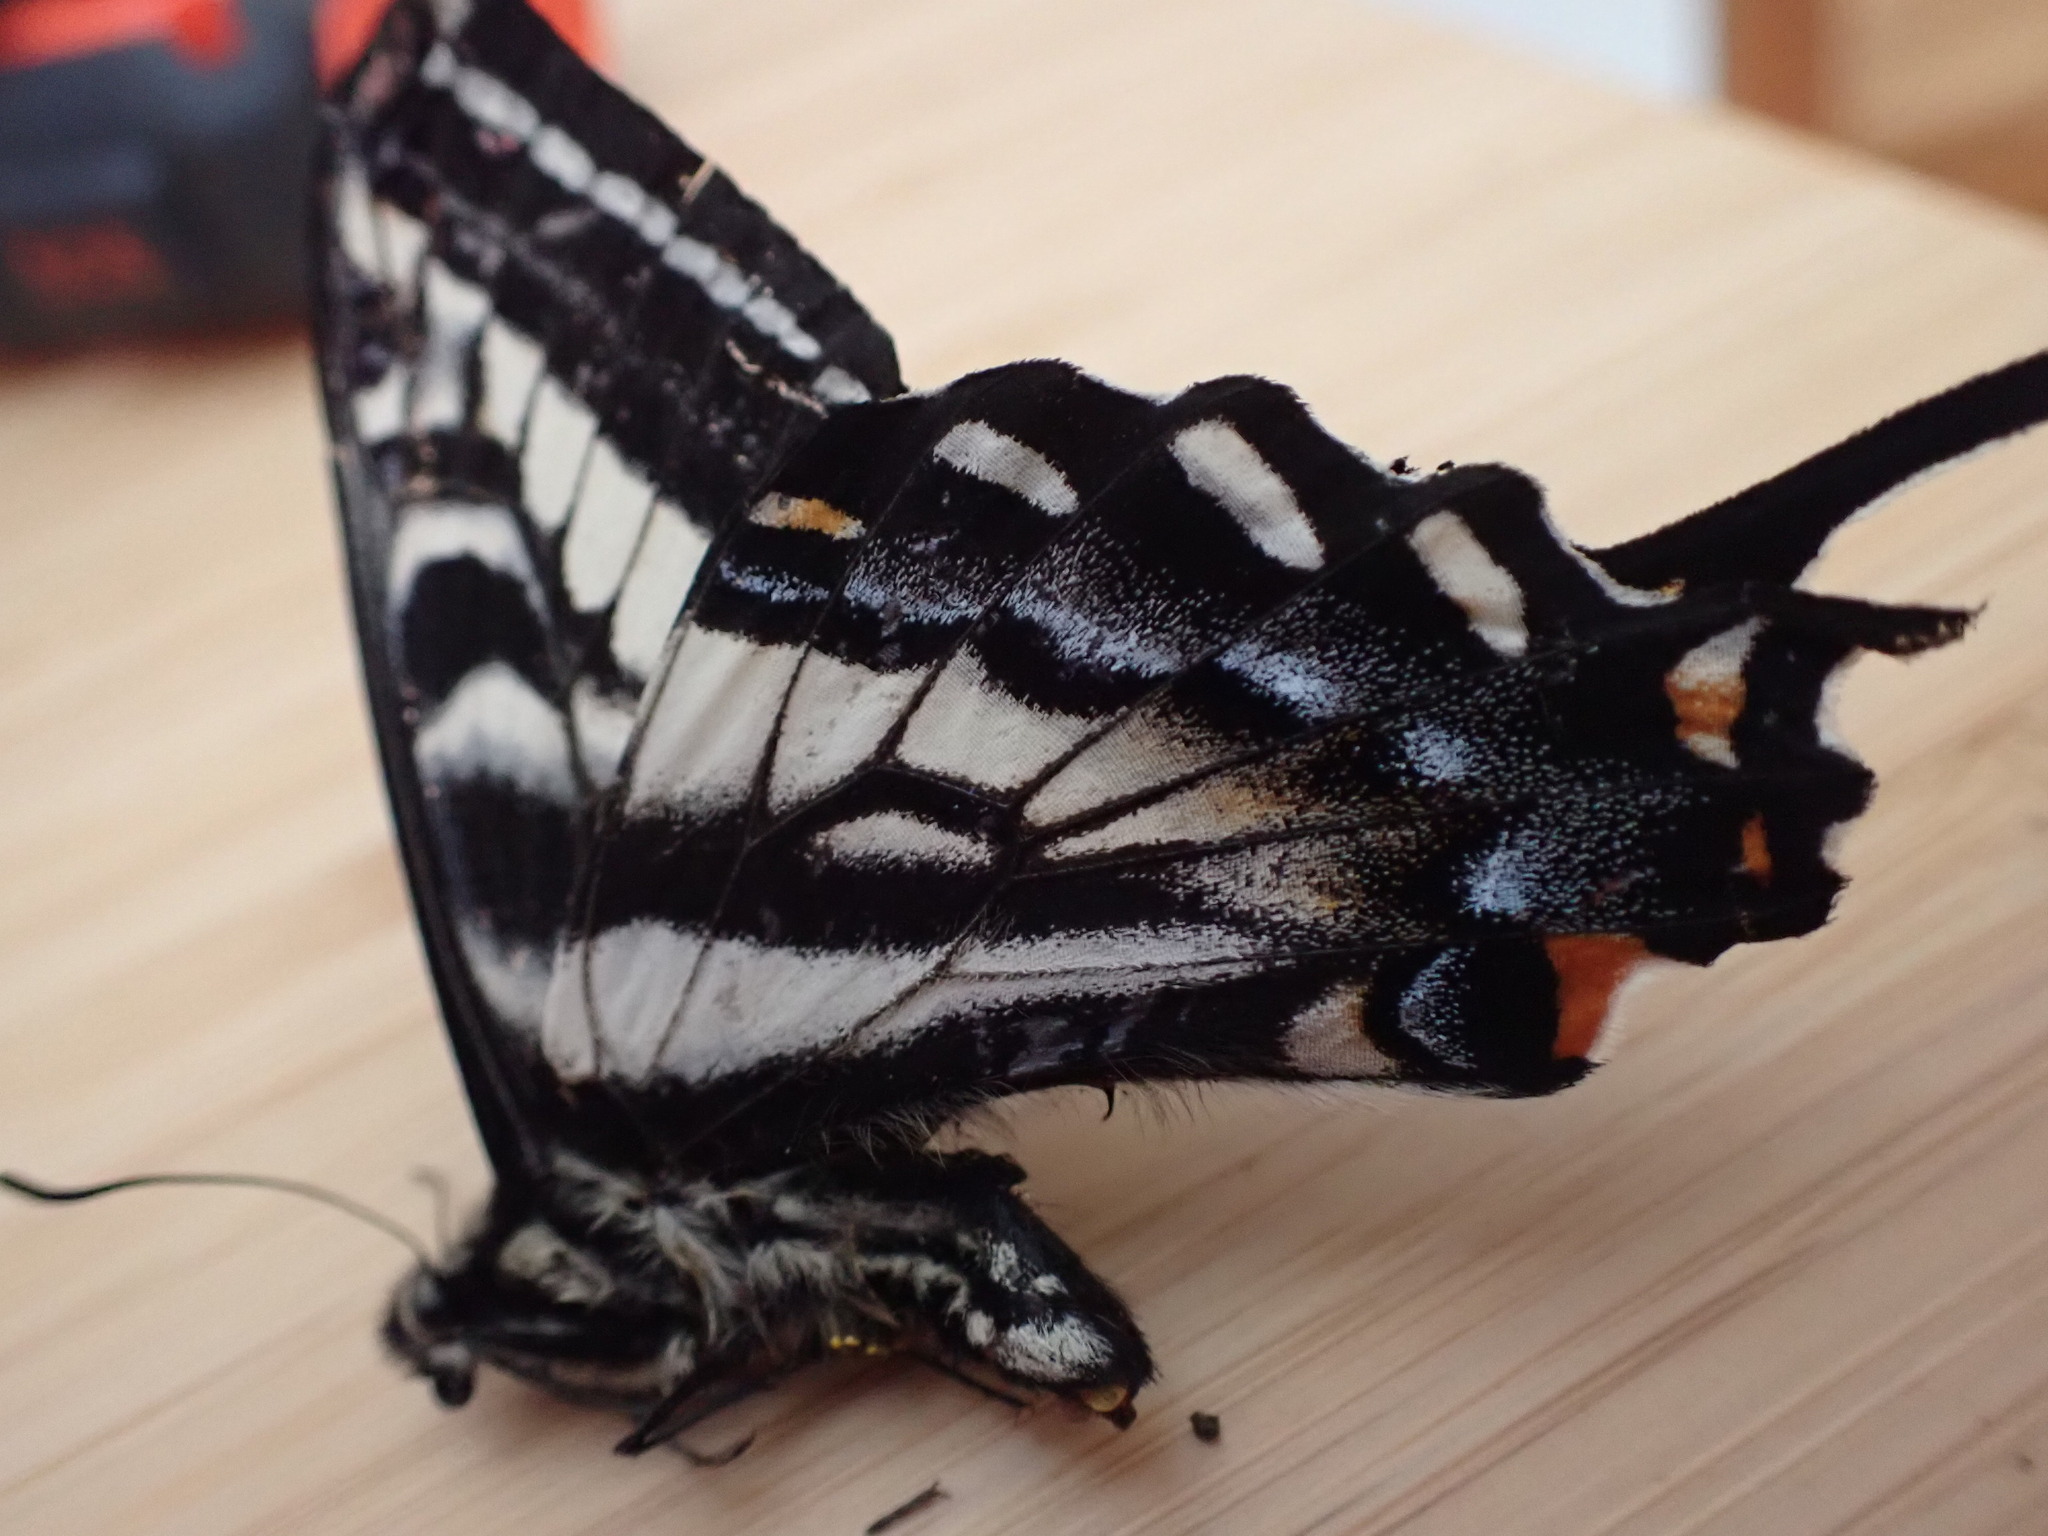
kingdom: Animalia
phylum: Arthropoda
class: Insecta
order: Lepidoptera
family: Papilionidae
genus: Papilio
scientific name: Papilio eurymedon
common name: Pale tiger swallowtail
